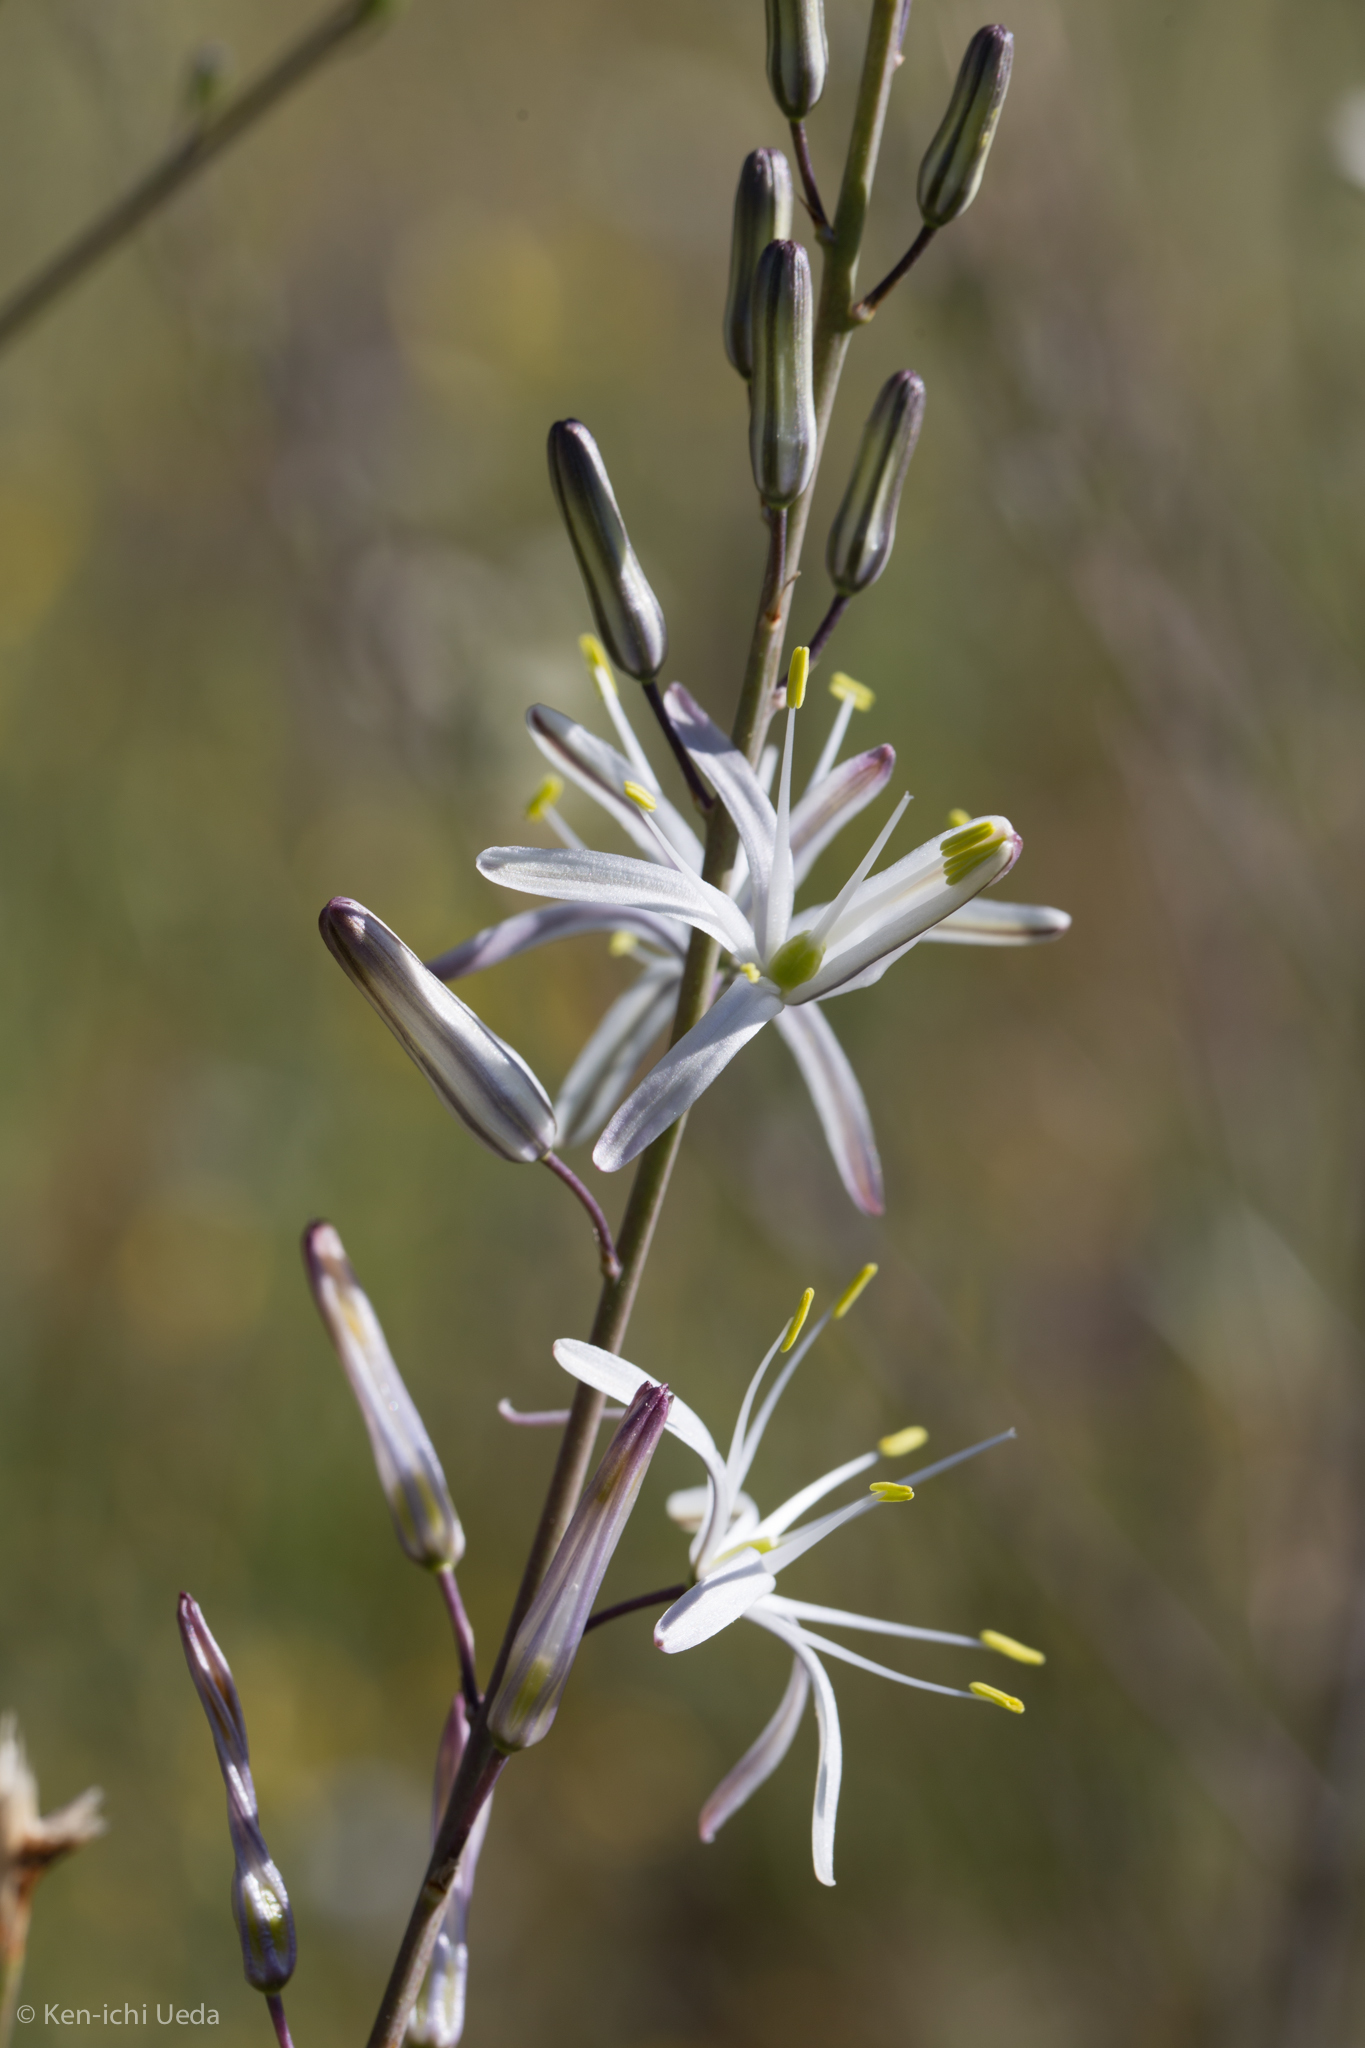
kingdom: Plantae
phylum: Tracheophyta
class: Liliopsida
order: Asparagales
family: Asparagaceae
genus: Chlorogalum
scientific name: Chlorogalum pomeridianum
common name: Amole
